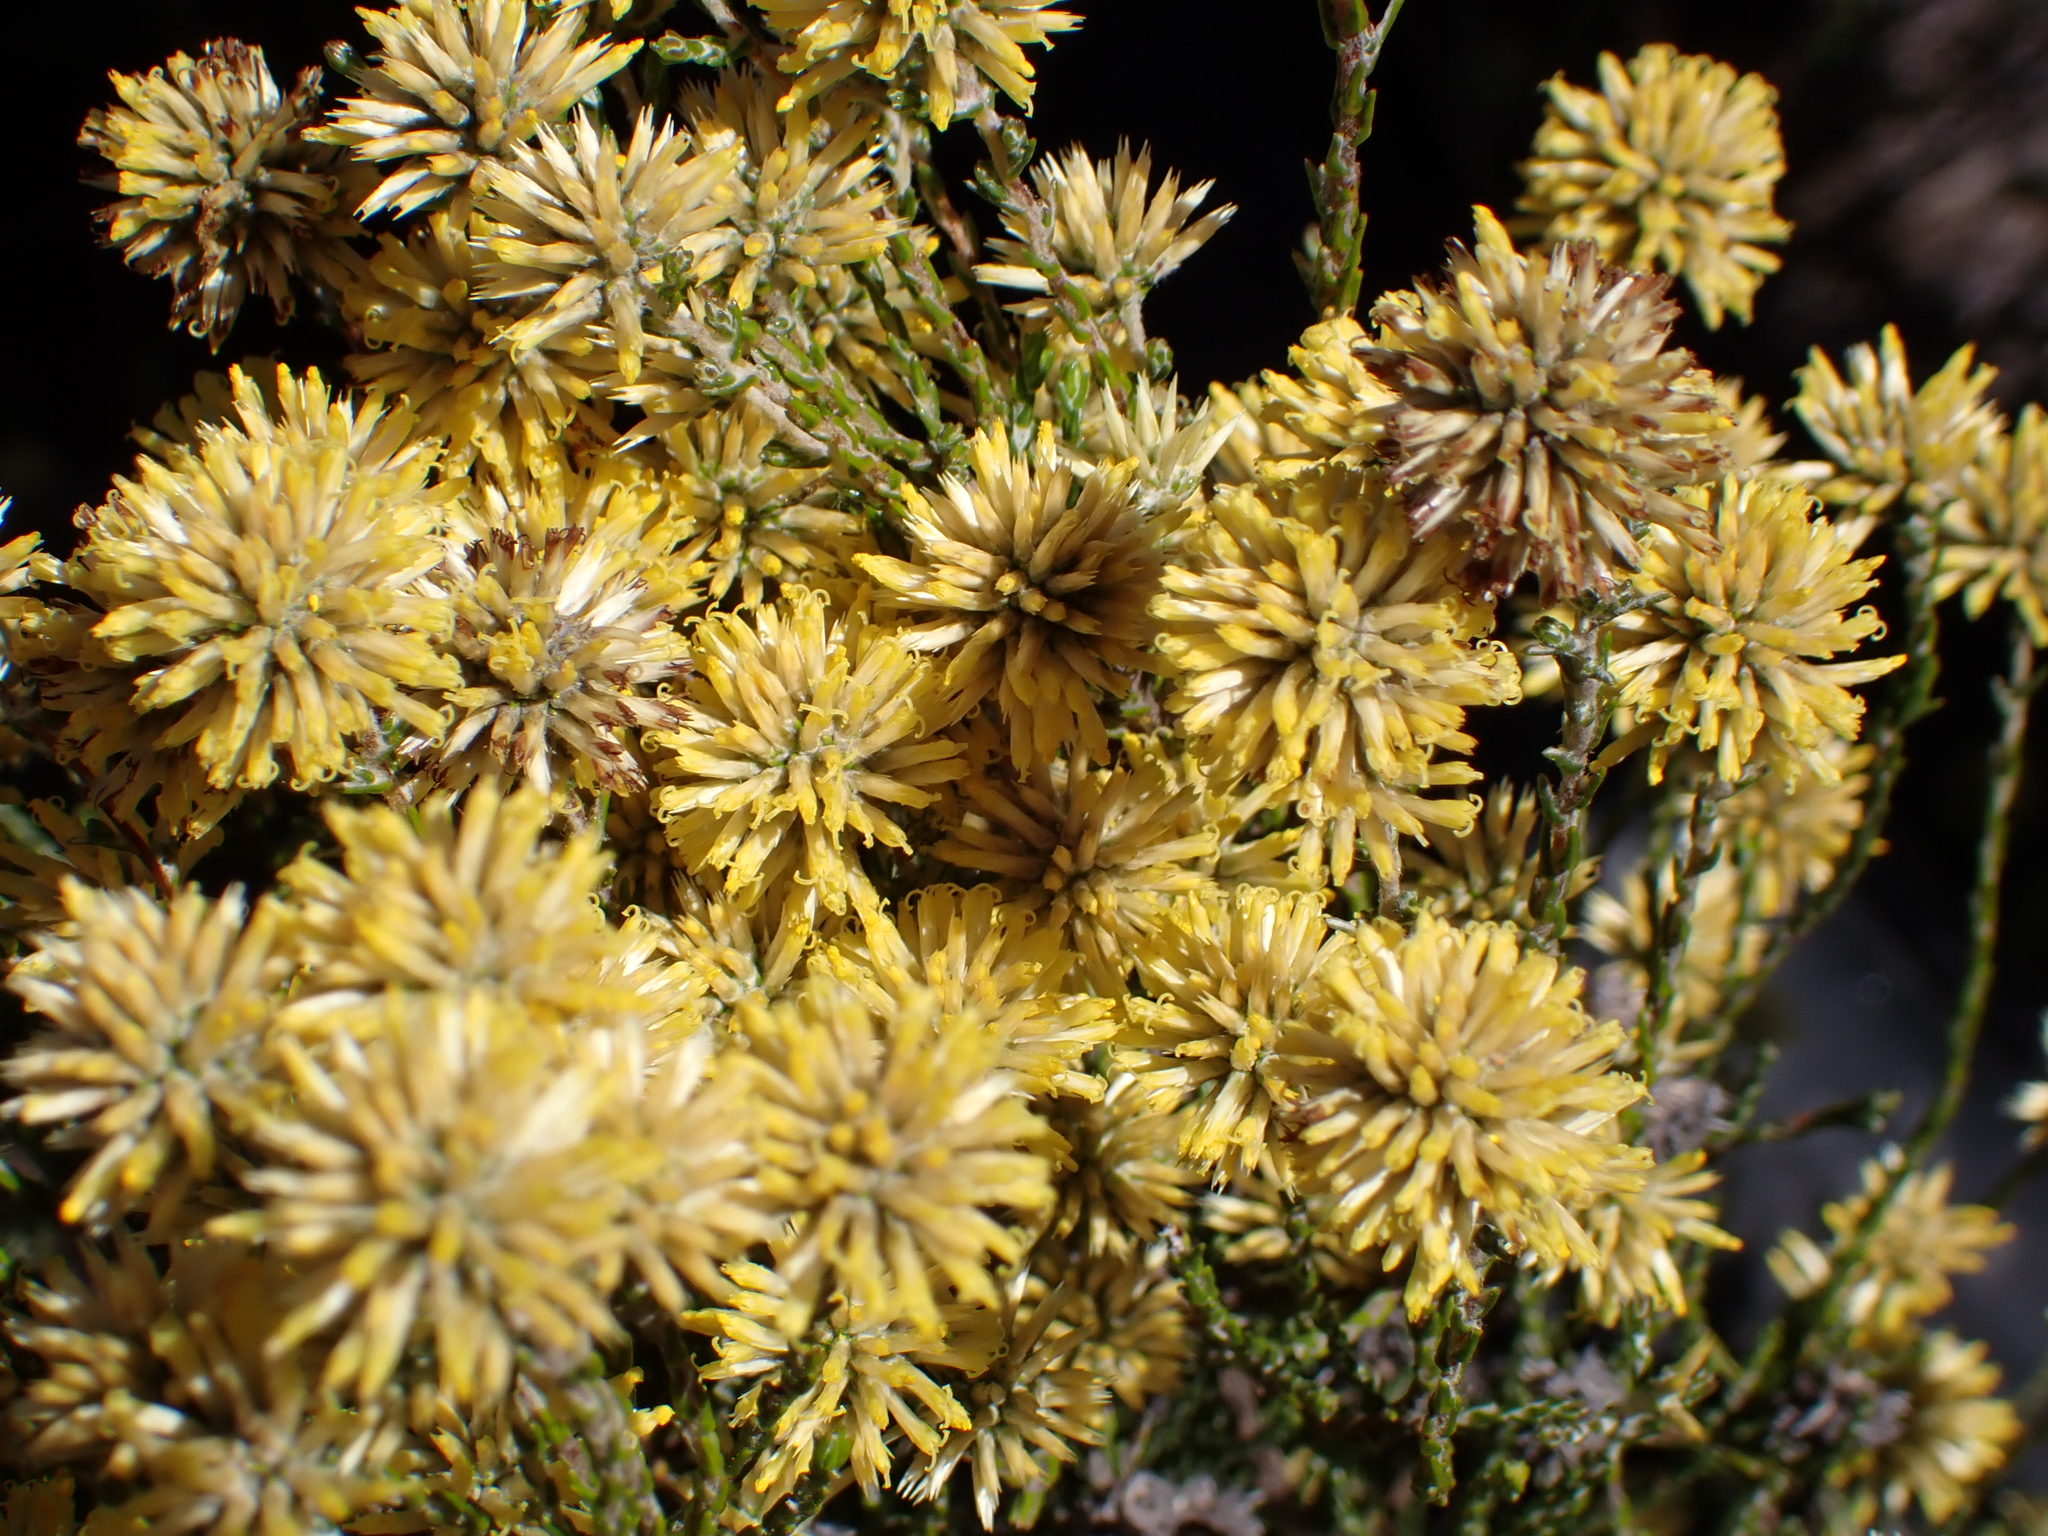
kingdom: Plantae
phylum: Tracheophyta
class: Magnoliopsida
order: Asterales
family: Asteraceae
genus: Seriphium
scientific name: Seriphium spirale
